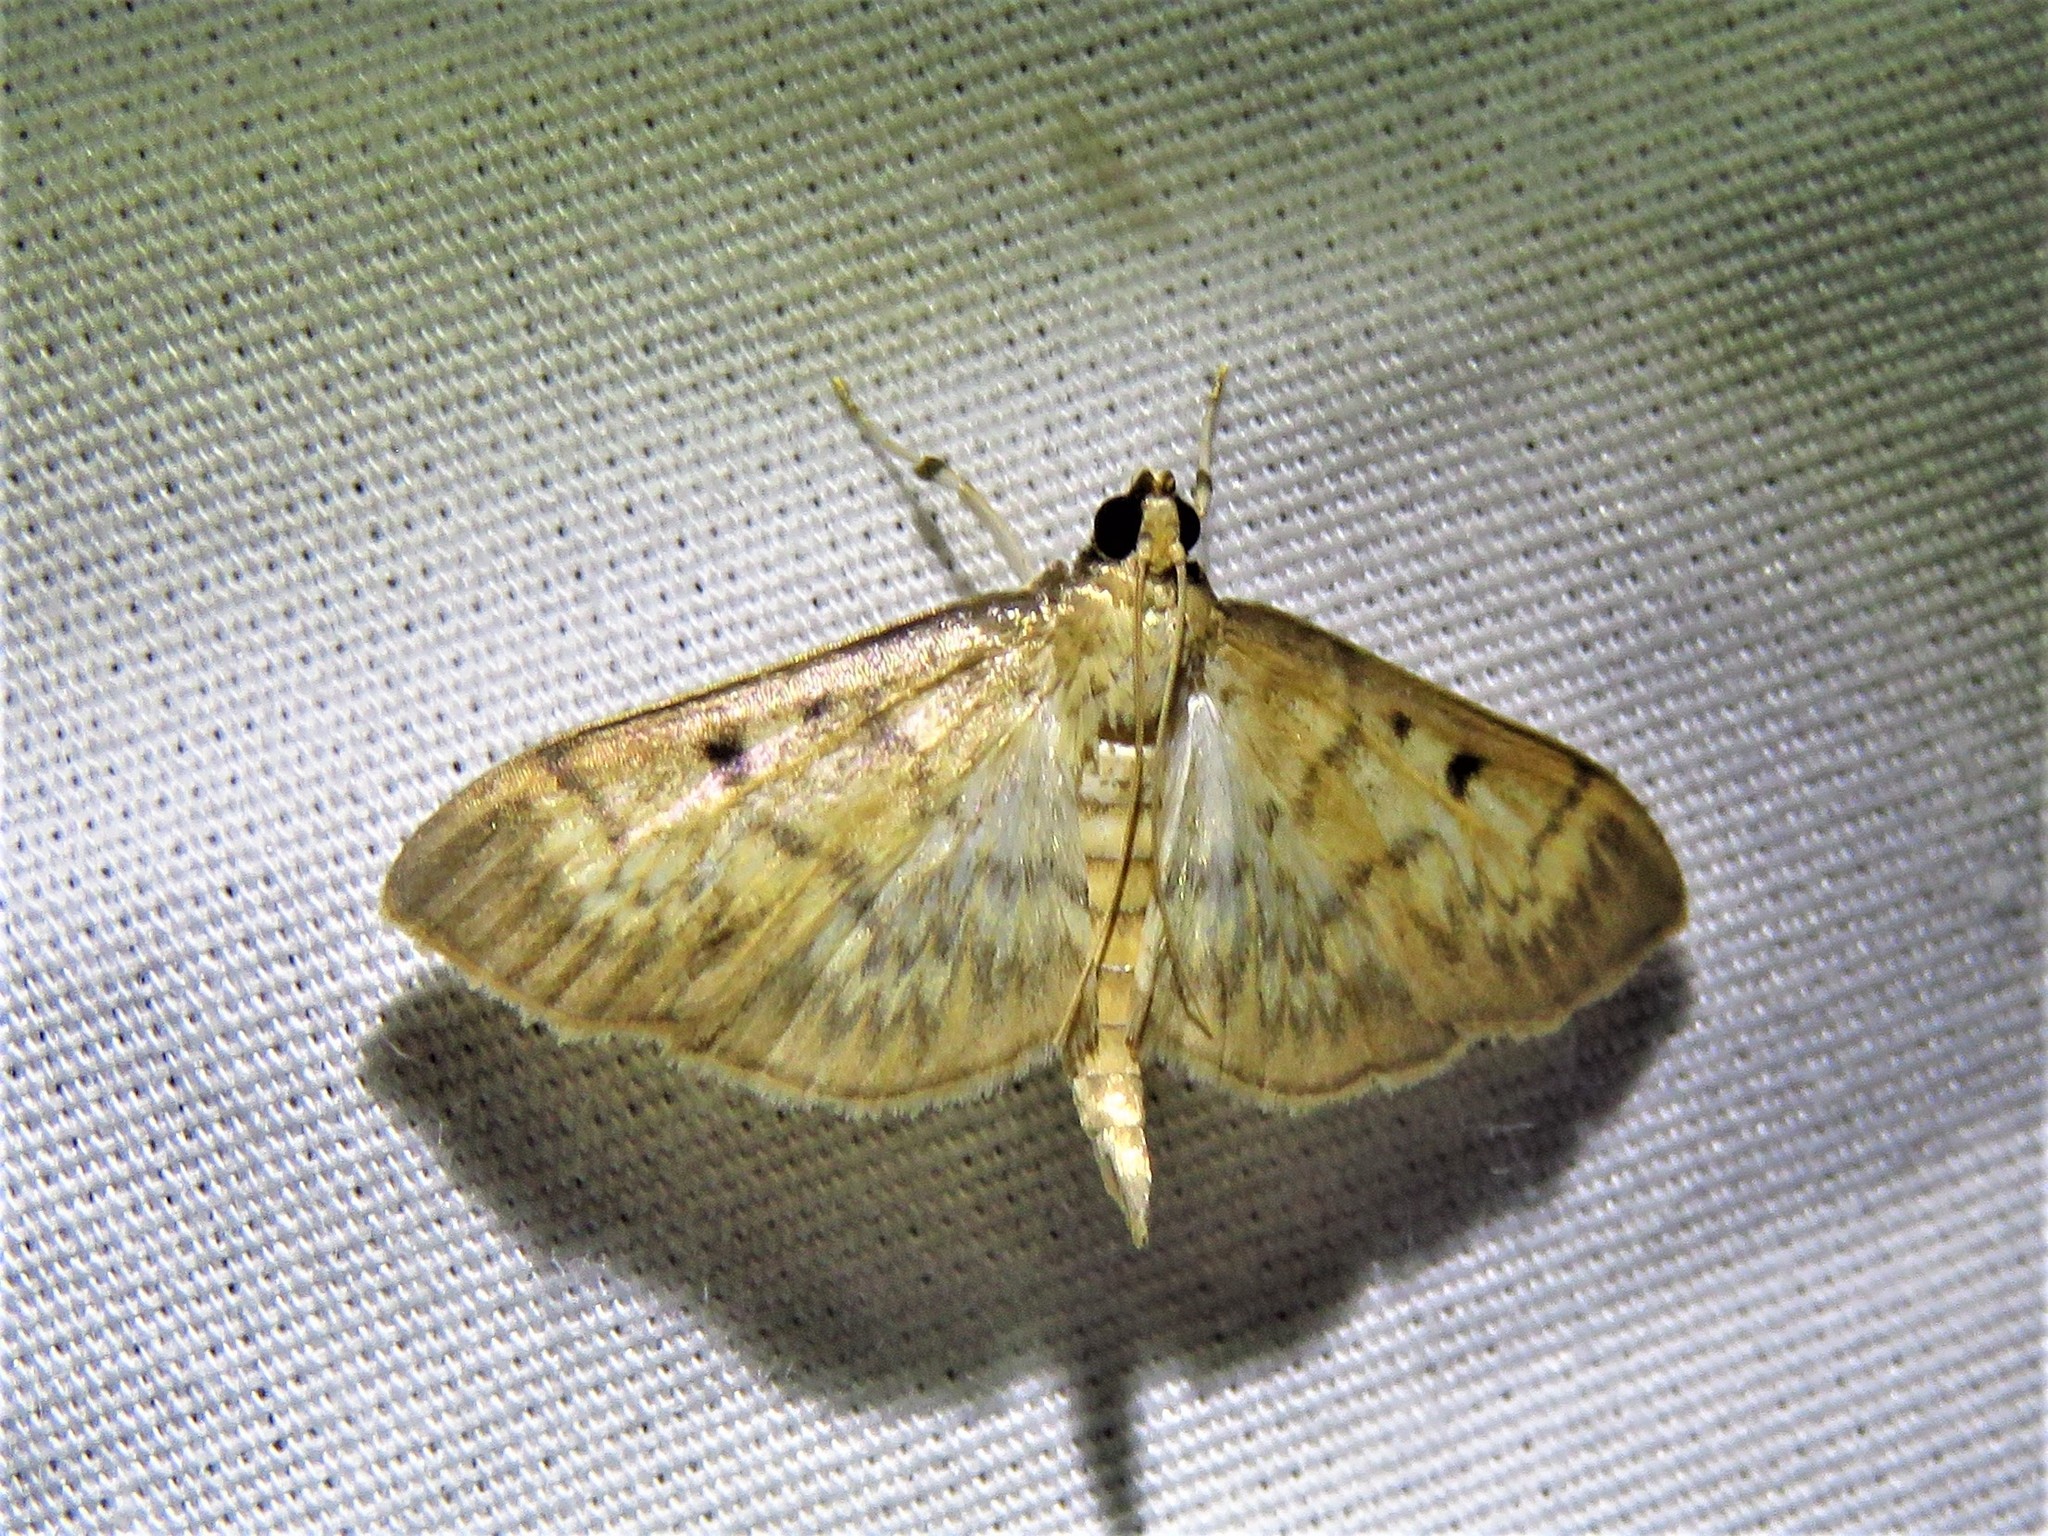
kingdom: Animalia
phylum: Arthropoda
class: Insecta
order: Lepidoptera
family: Crambidae
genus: Herpetogramma
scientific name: Herpetogramma fluctuosalis
